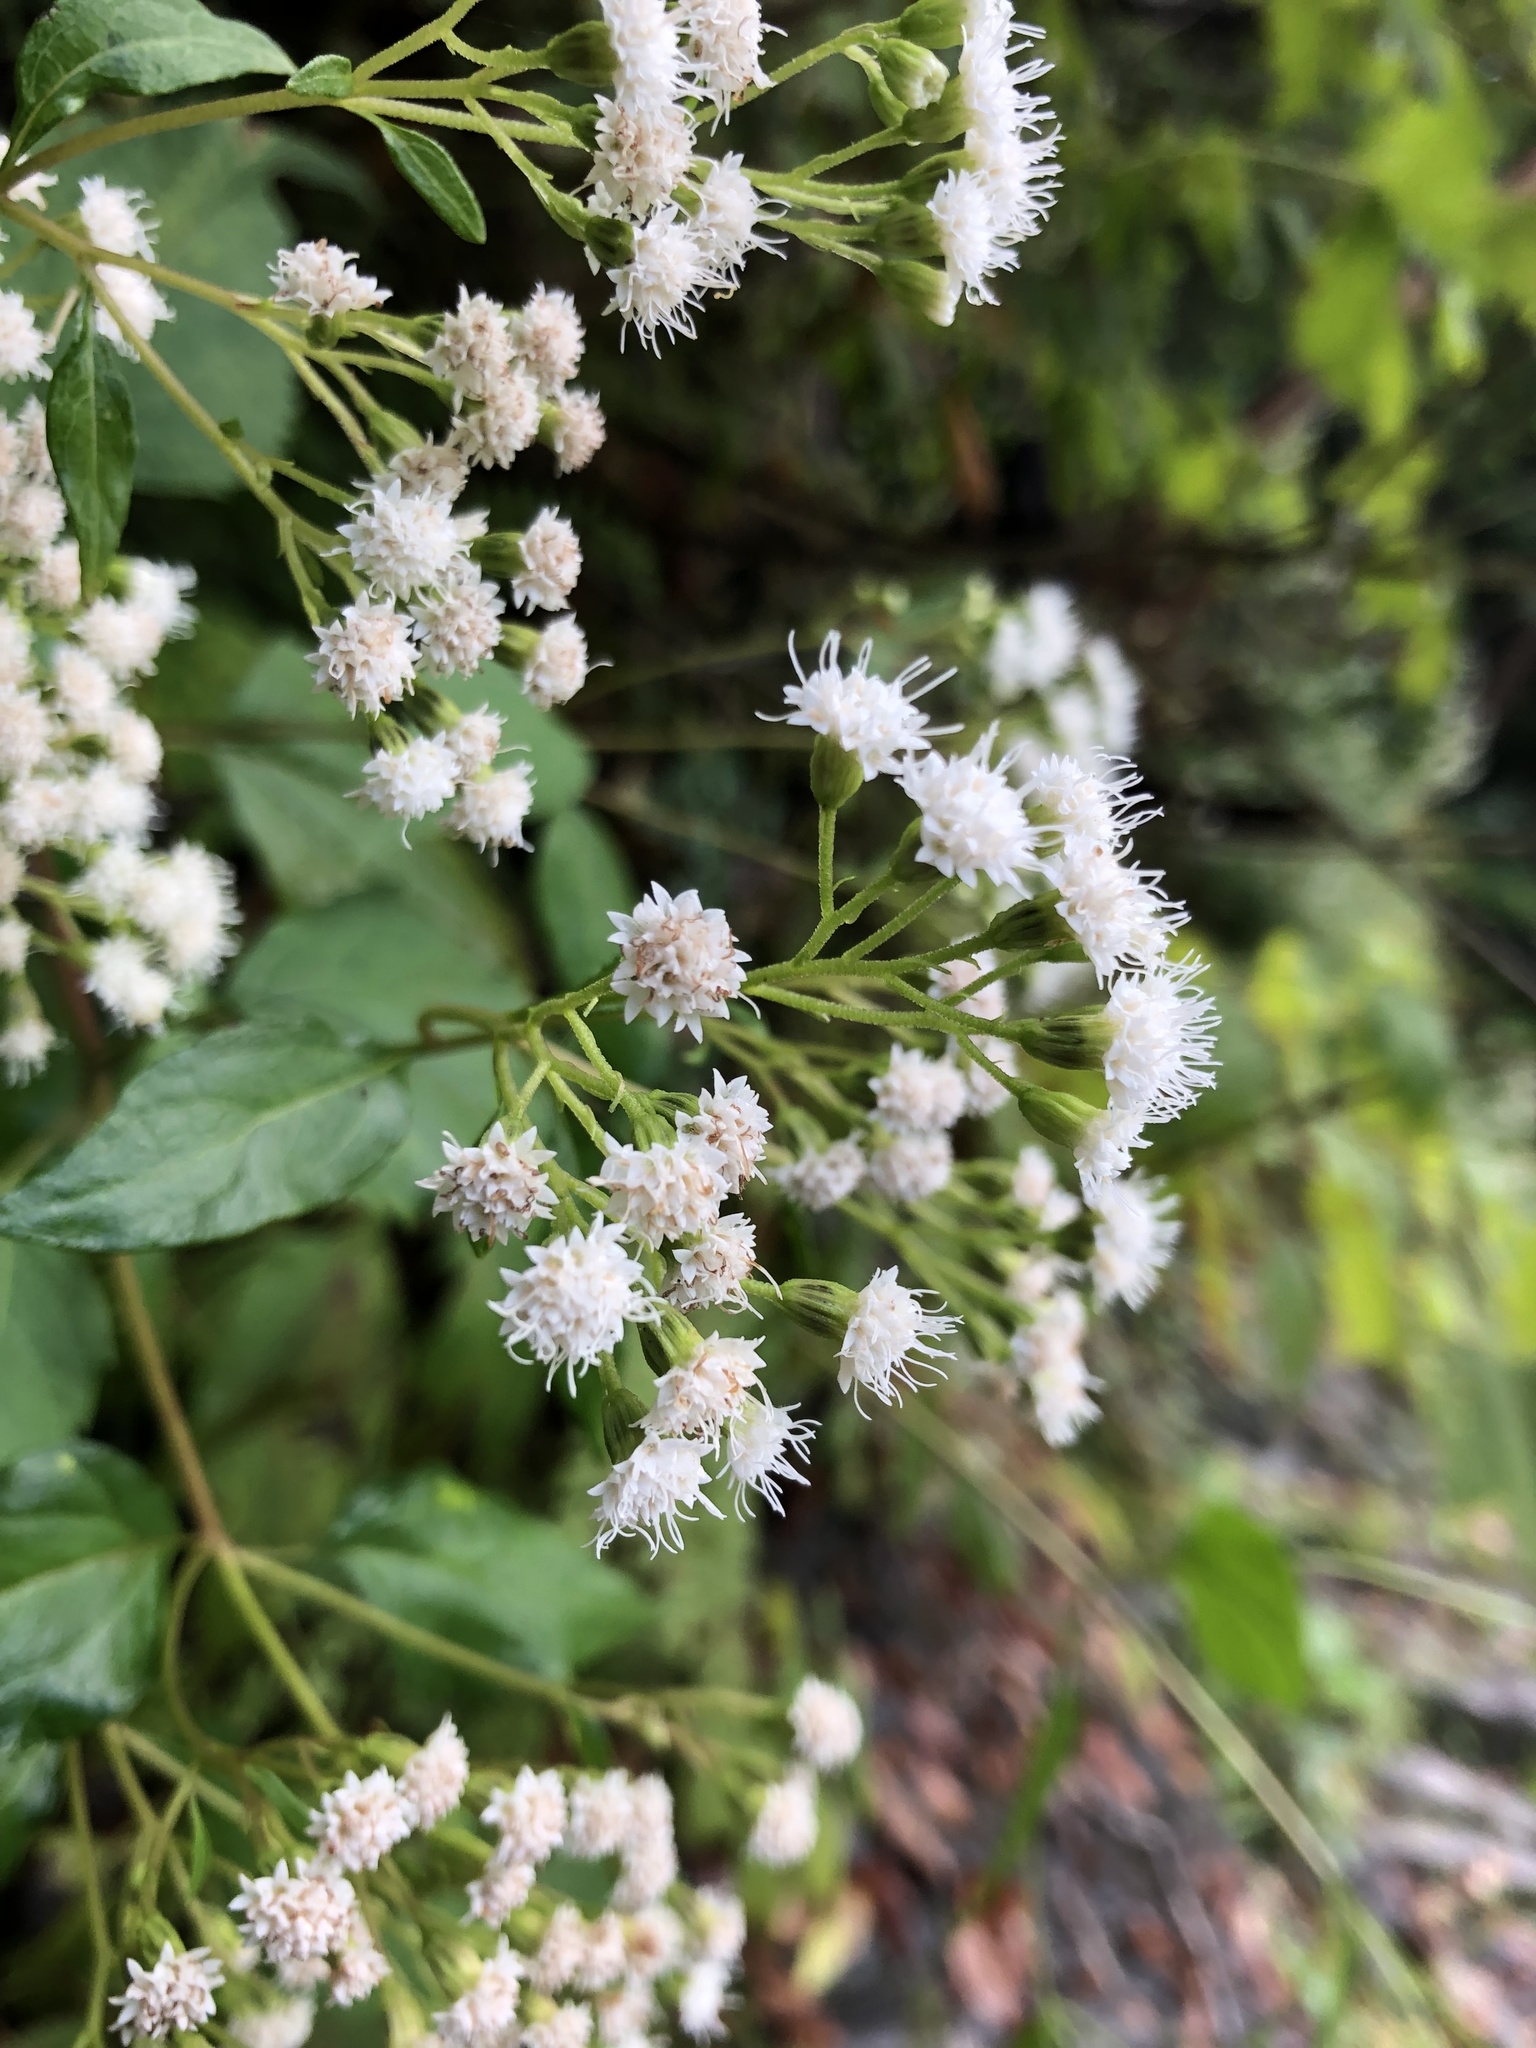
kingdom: Plantae
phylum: Tracheophyta
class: Magnoliopsida
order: Asterales
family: Asteraceae
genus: Ageratina
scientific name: Ageratina altissima
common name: White snakeroot
